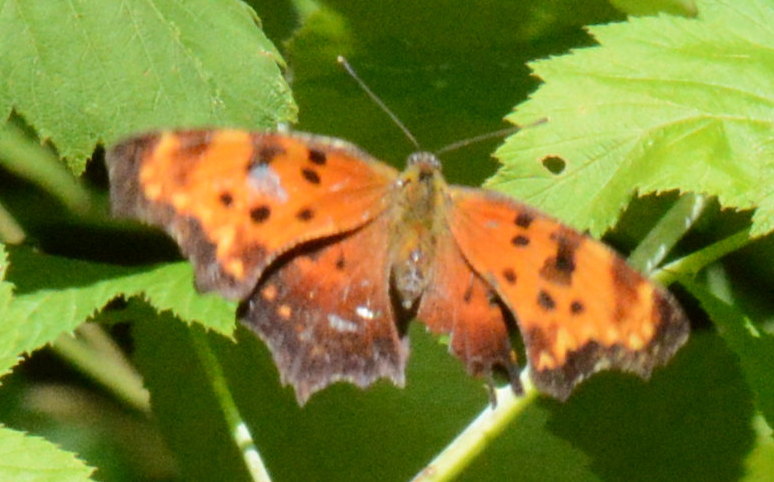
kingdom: Animalia
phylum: Arthropoda
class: Insecta
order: Lepidoptera
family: Nymphalidae
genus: Polygonia
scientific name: Polygonia comma
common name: Eastern comma
